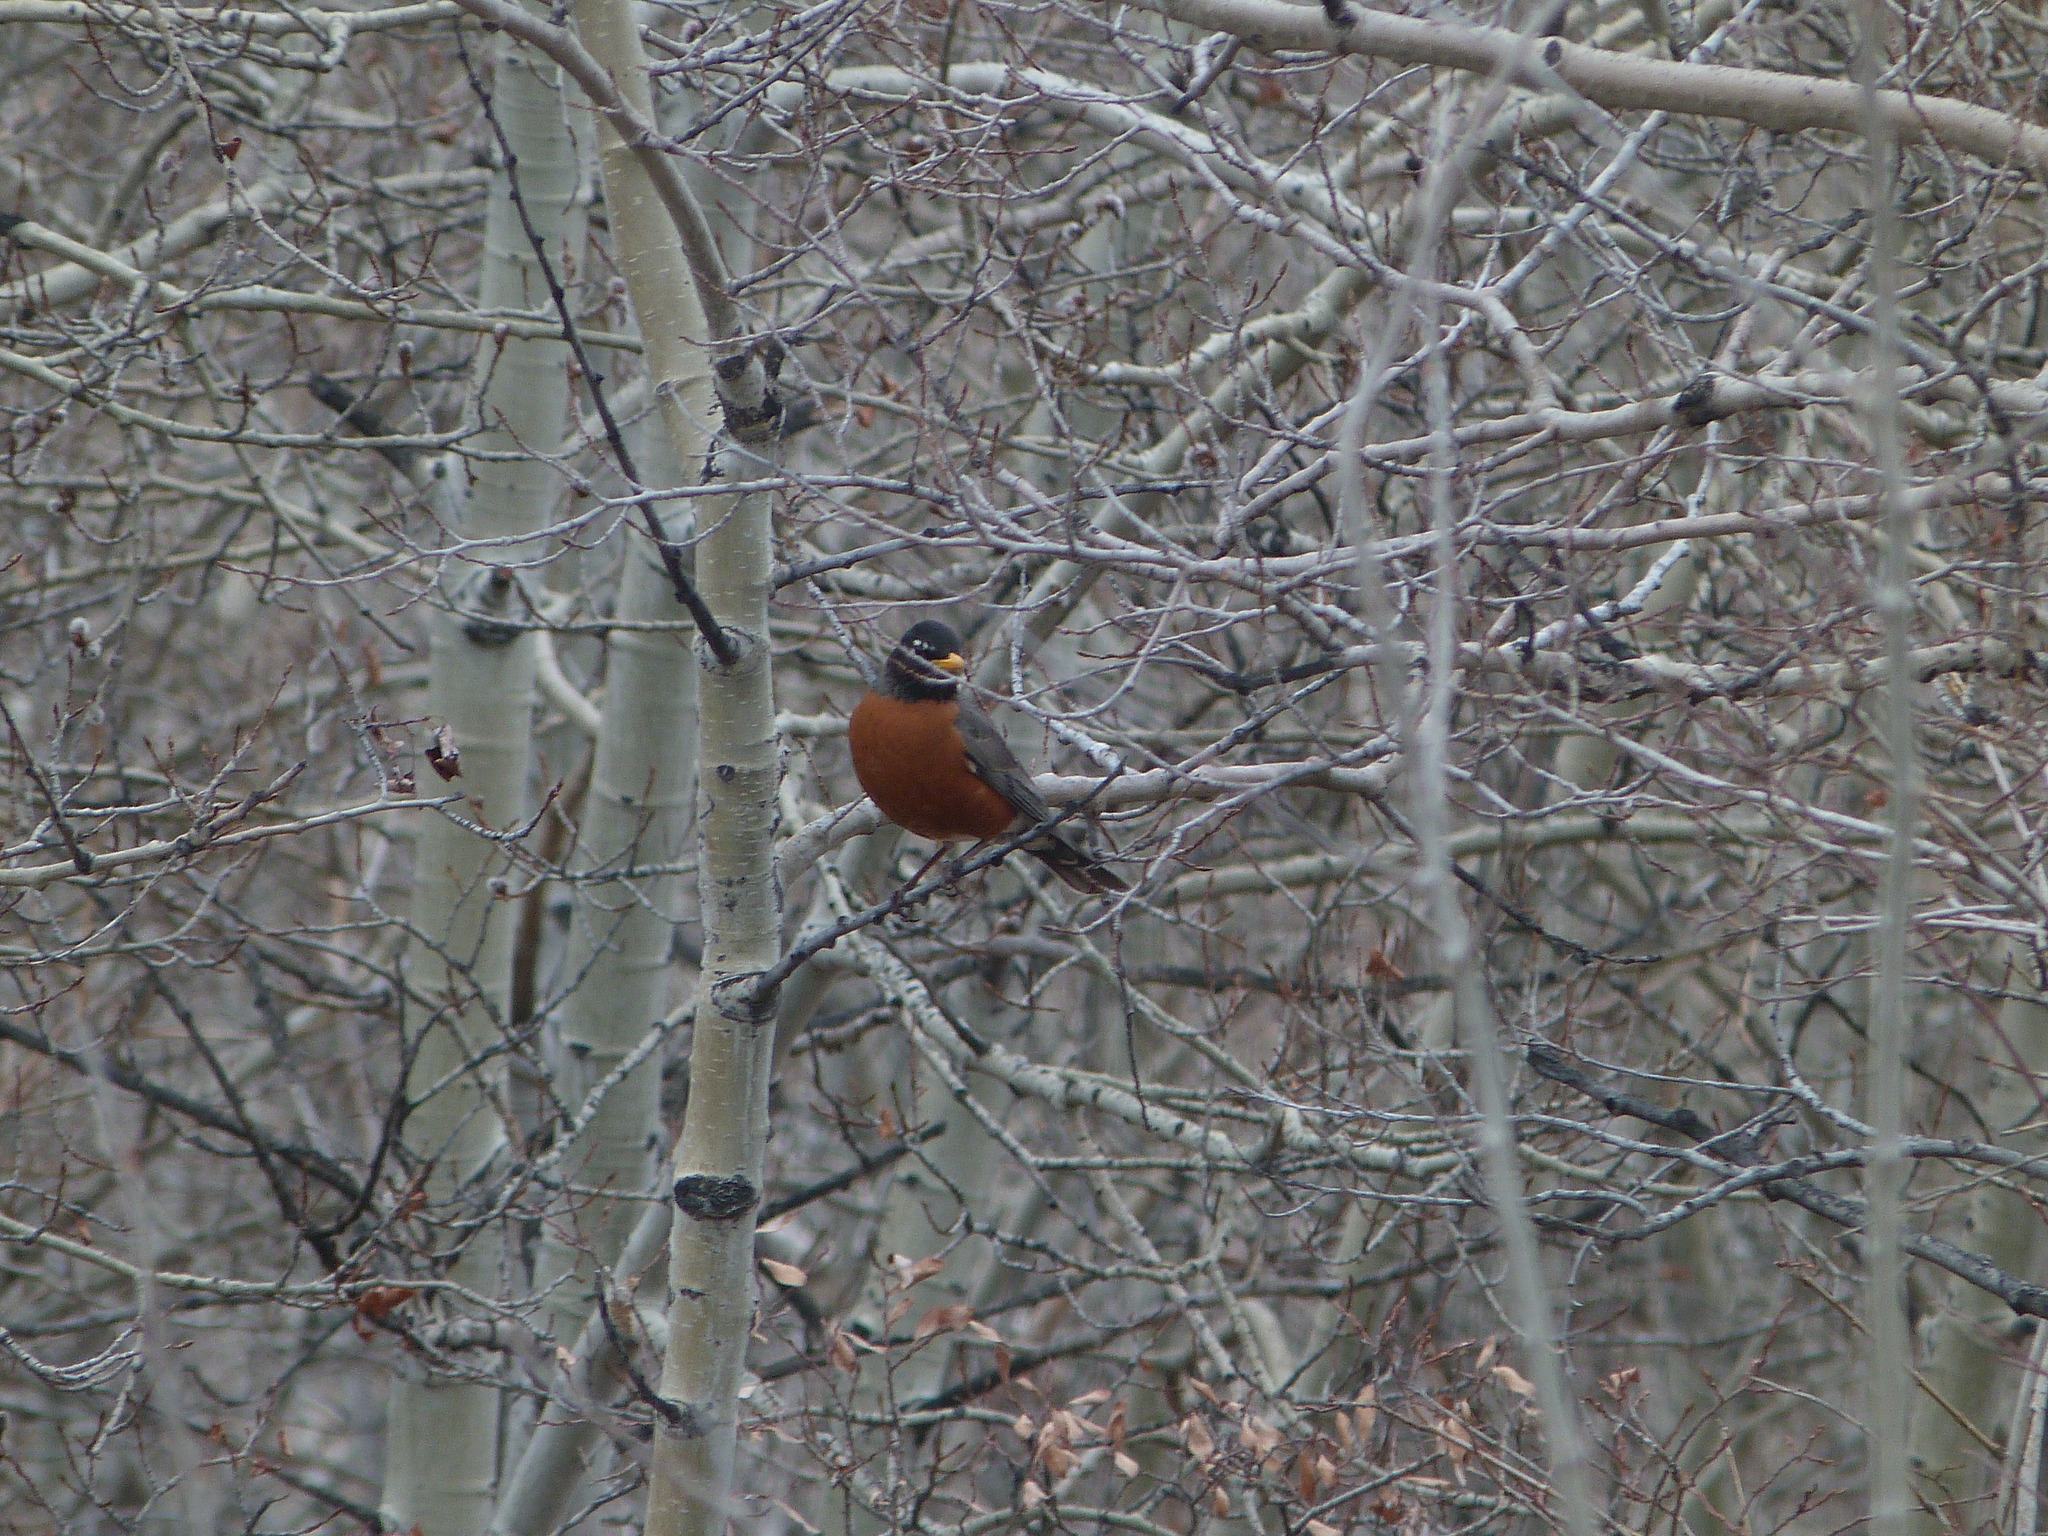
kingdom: Animalia
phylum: Chordata
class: Aves
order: Passeriformes
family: Turdidae
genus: Turdus
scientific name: Turdus migratorius
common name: American robin
